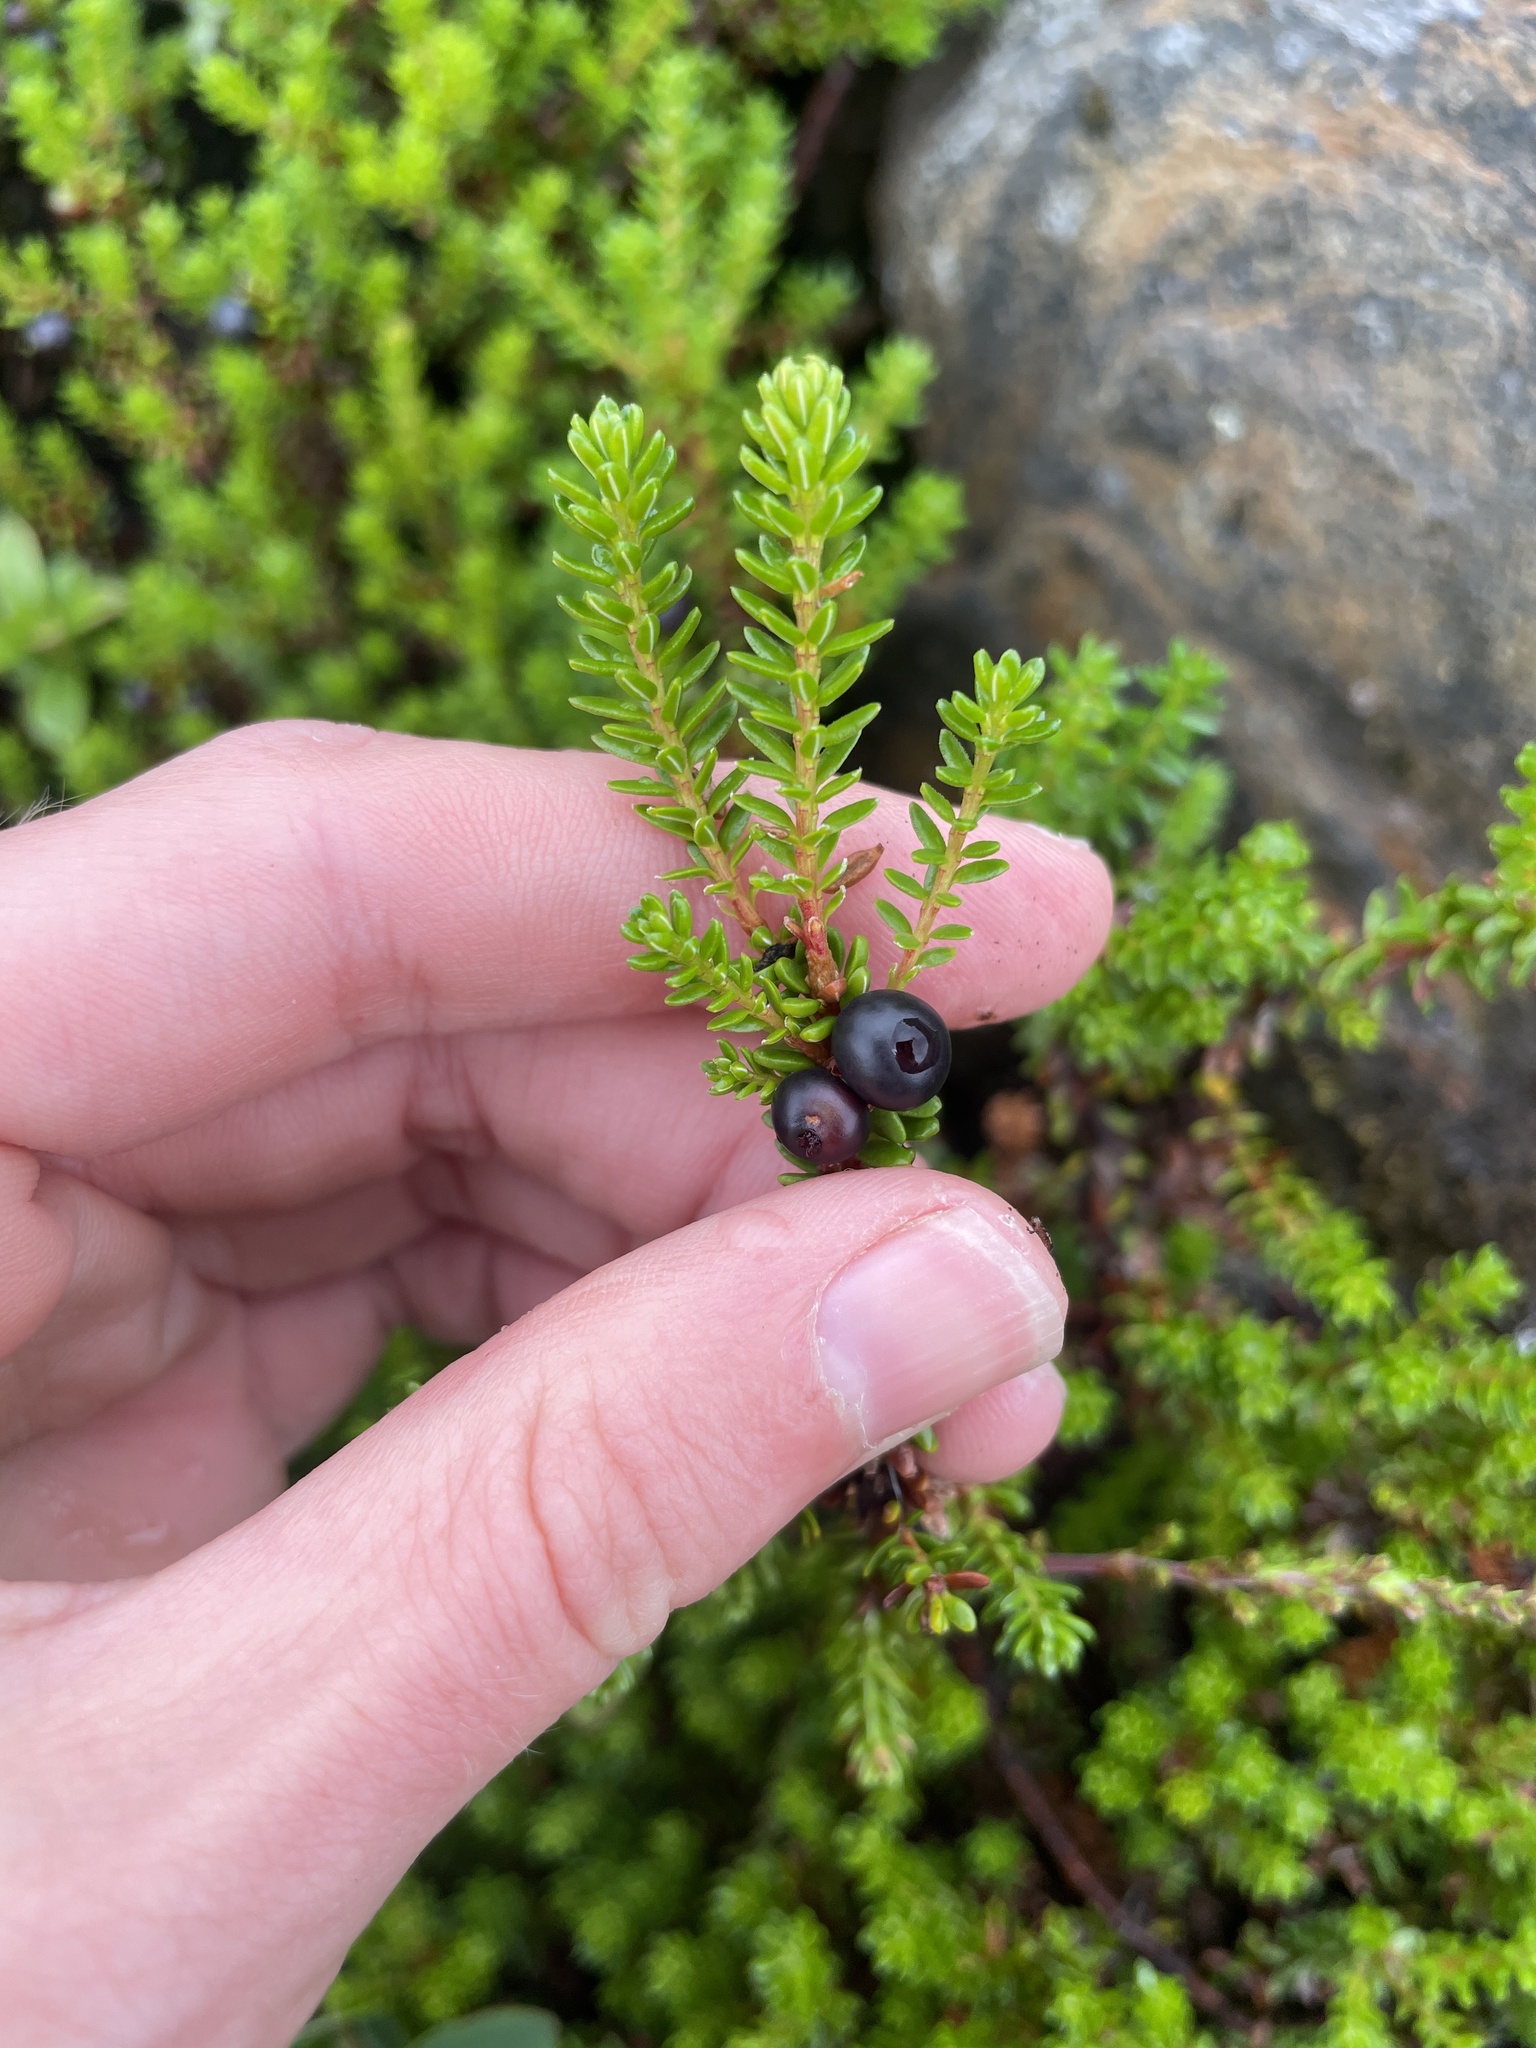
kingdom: Plantae
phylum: Tracheophyta
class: Magnoliopsida
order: Ericales
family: Ericaceae
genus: Empetrum
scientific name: Empetrum nigrum
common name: Black crowberry
